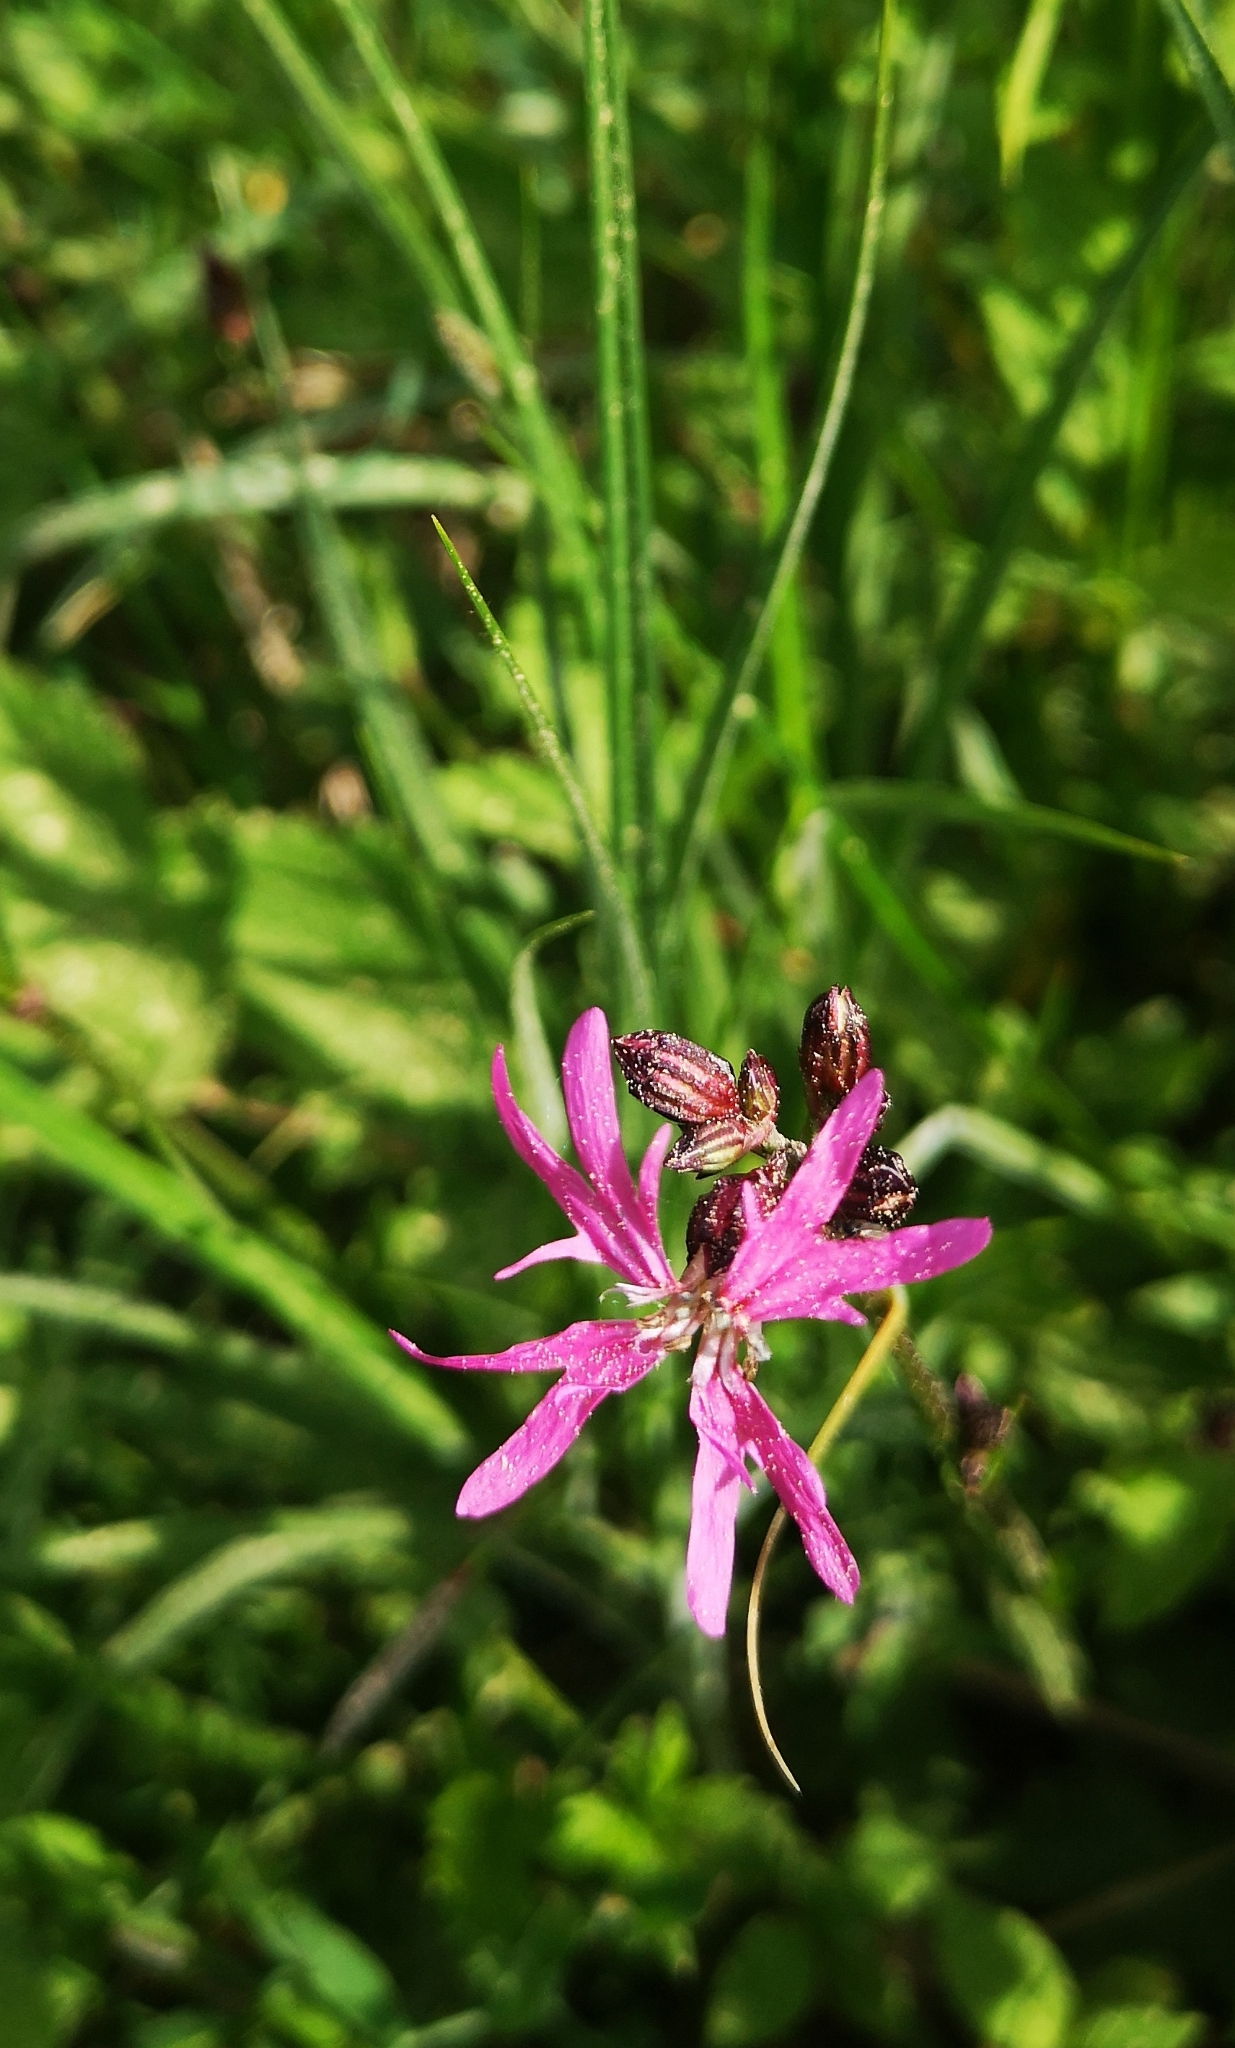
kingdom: Plantae
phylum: Tracheophyta
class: Magnoliopsida
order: Caryophyllales
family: Caryophyllaceae
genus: Silene
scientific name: Silene flos-cuculi
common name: Ragged-robin
